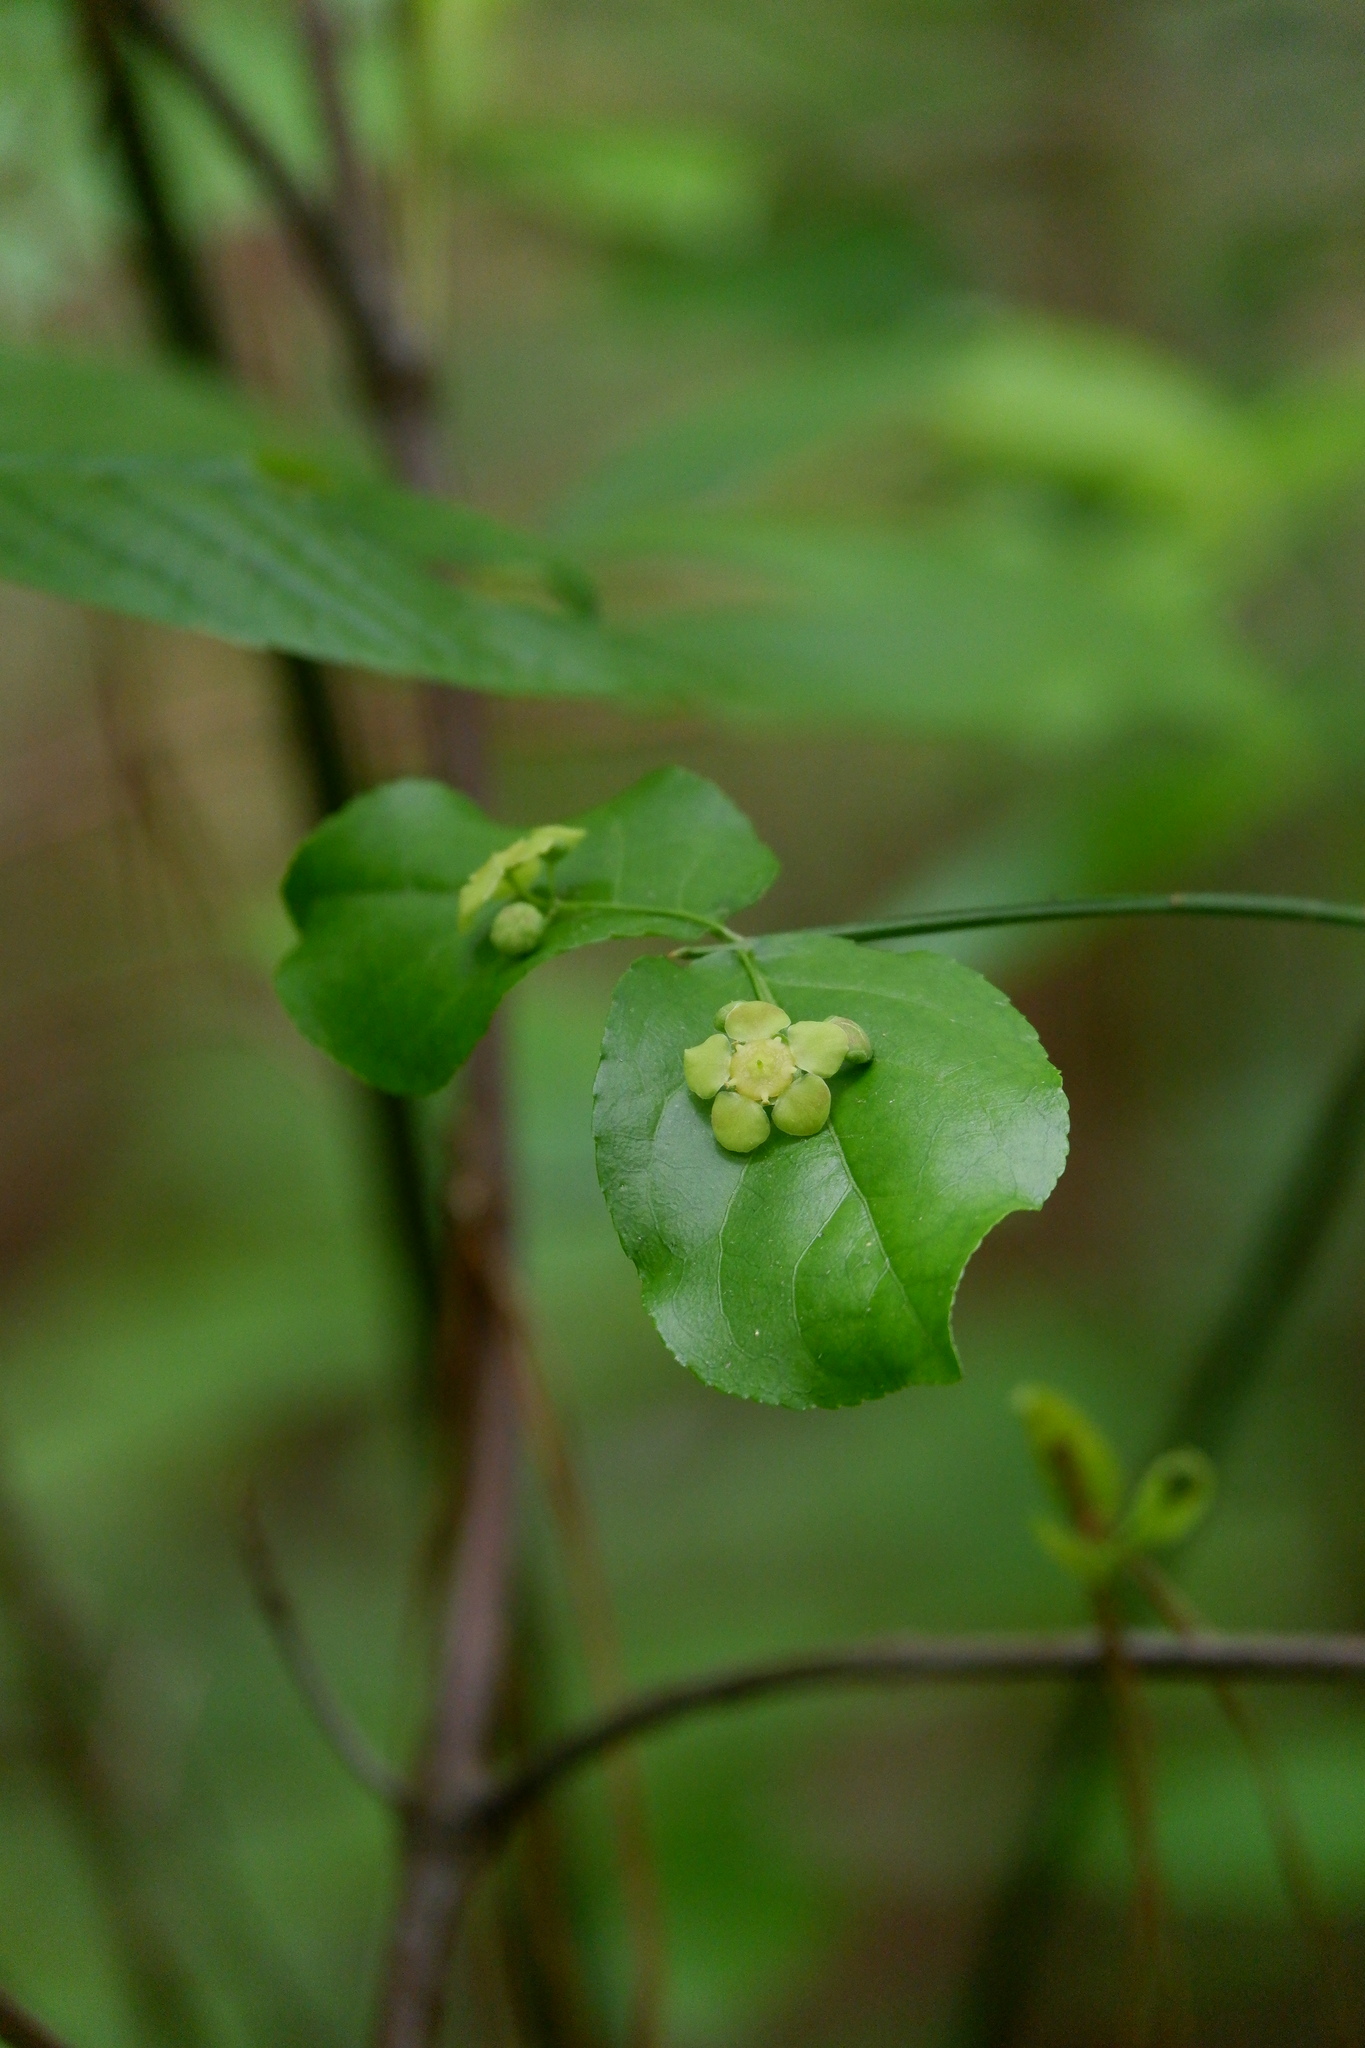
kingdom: Plantae
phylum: Tracheophyta
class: Magnoliopsida
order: Celastrales
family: Celastraceae
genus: Euonymus
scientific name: Euonymus americanus
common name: Bursting-heart
